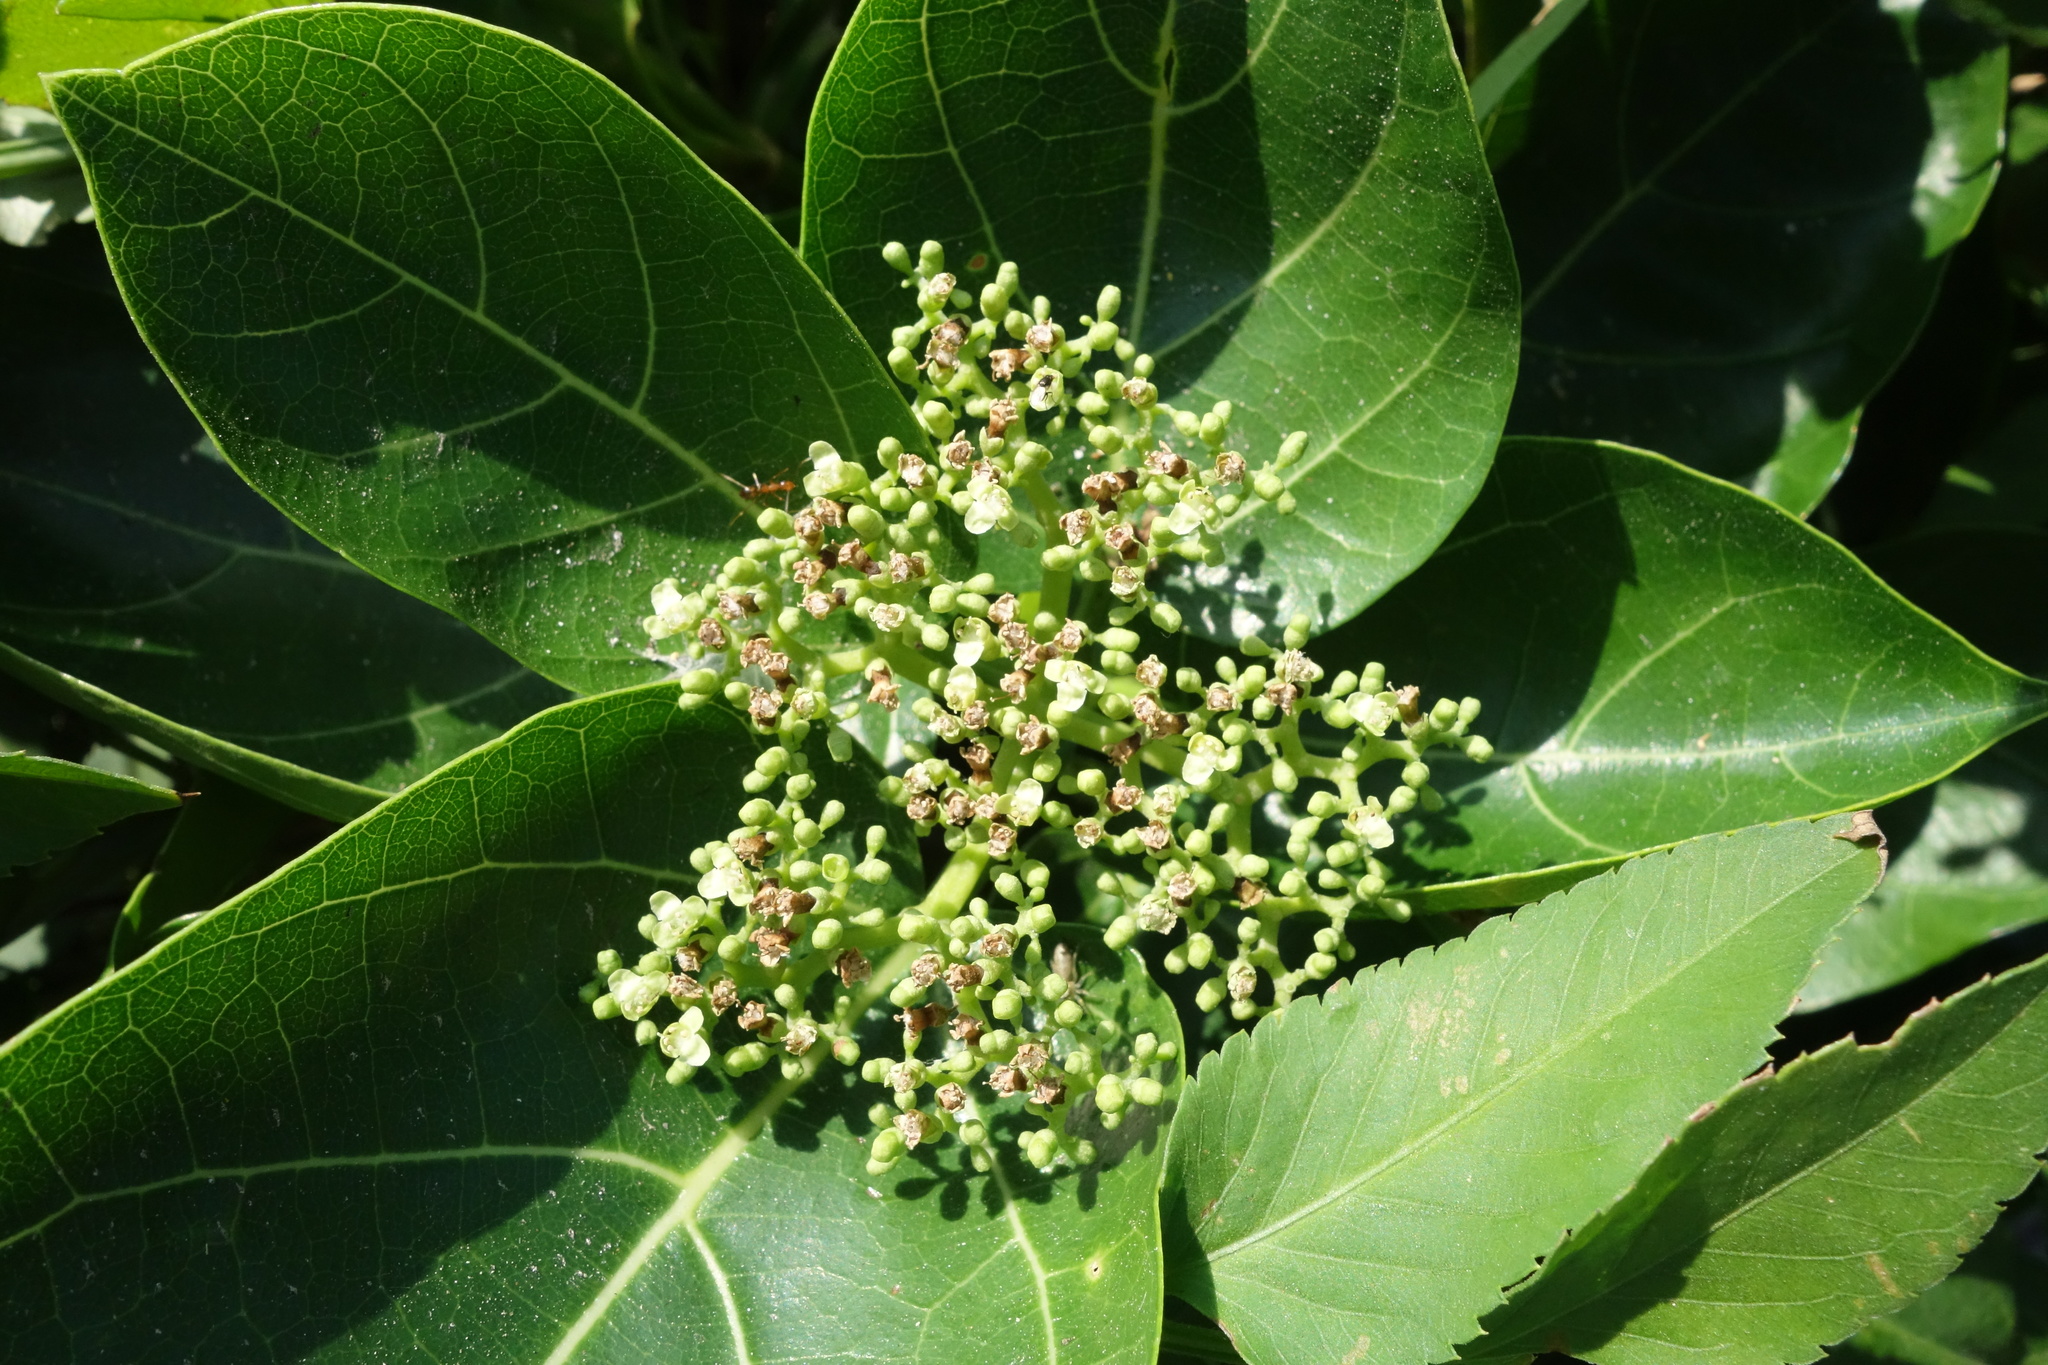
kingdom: Plantae
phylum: Tracheophyta
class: Magnoliopsida
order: Lamiales
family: Lamiaceae
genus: Premna
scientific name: Premna serratifolia
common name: Bastard guelder
